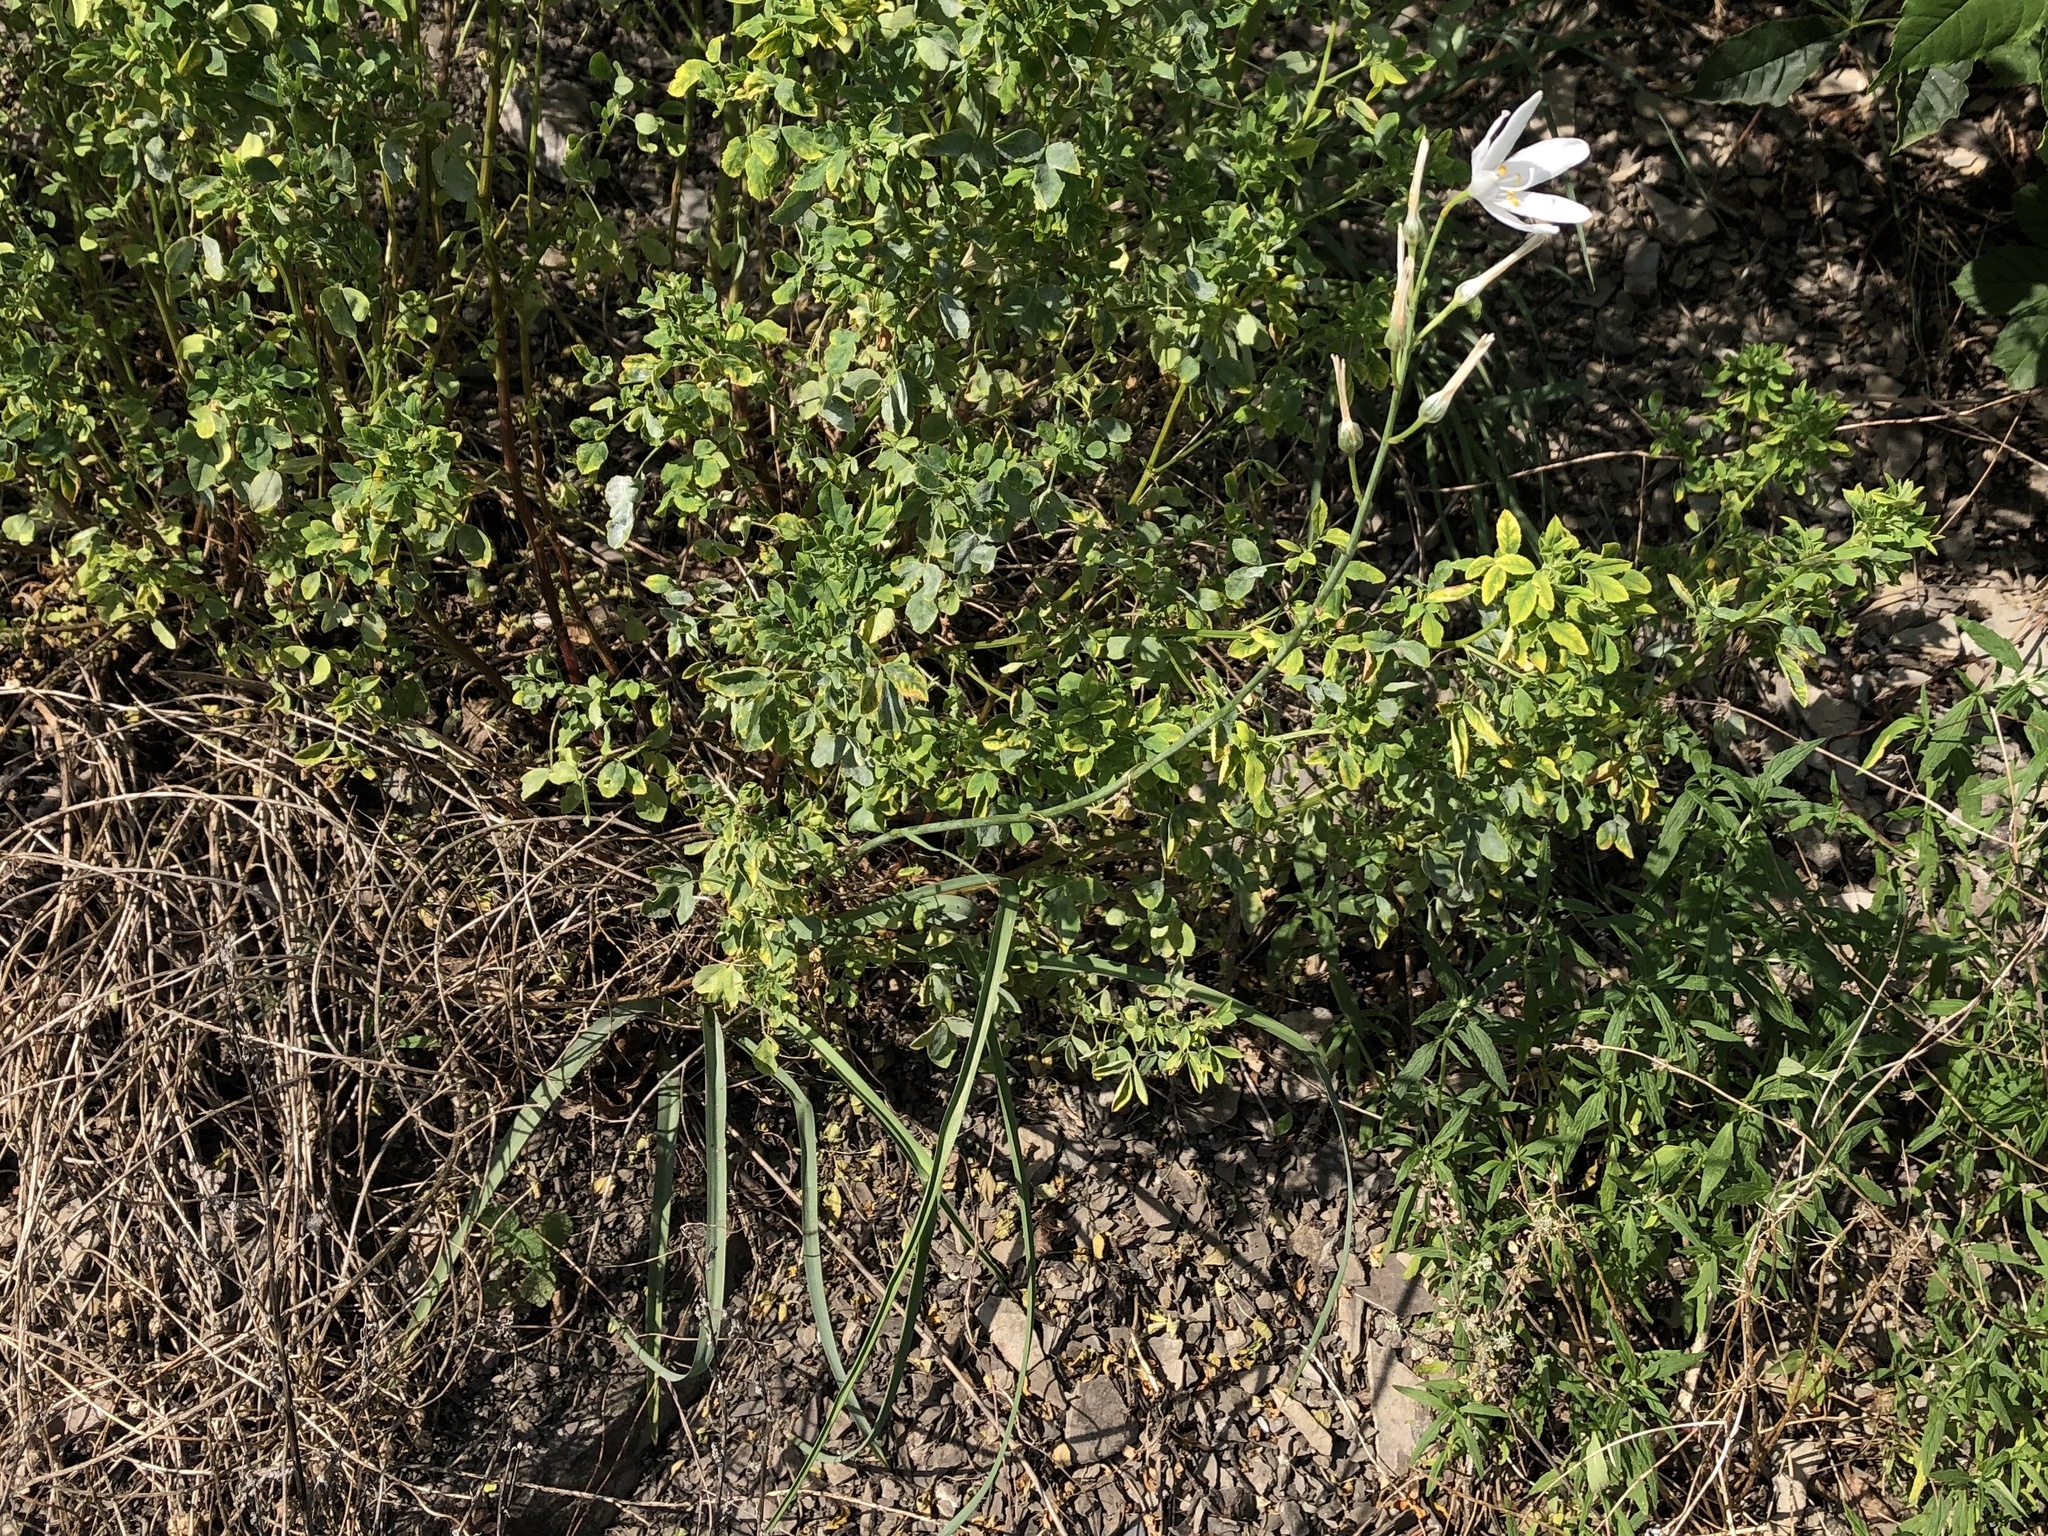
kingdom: Plantae
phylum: Tracheophyta
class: Liliopsida
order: Asparagales
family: Asparagaceae
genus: Anthericum
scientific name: Anthericum liliago
